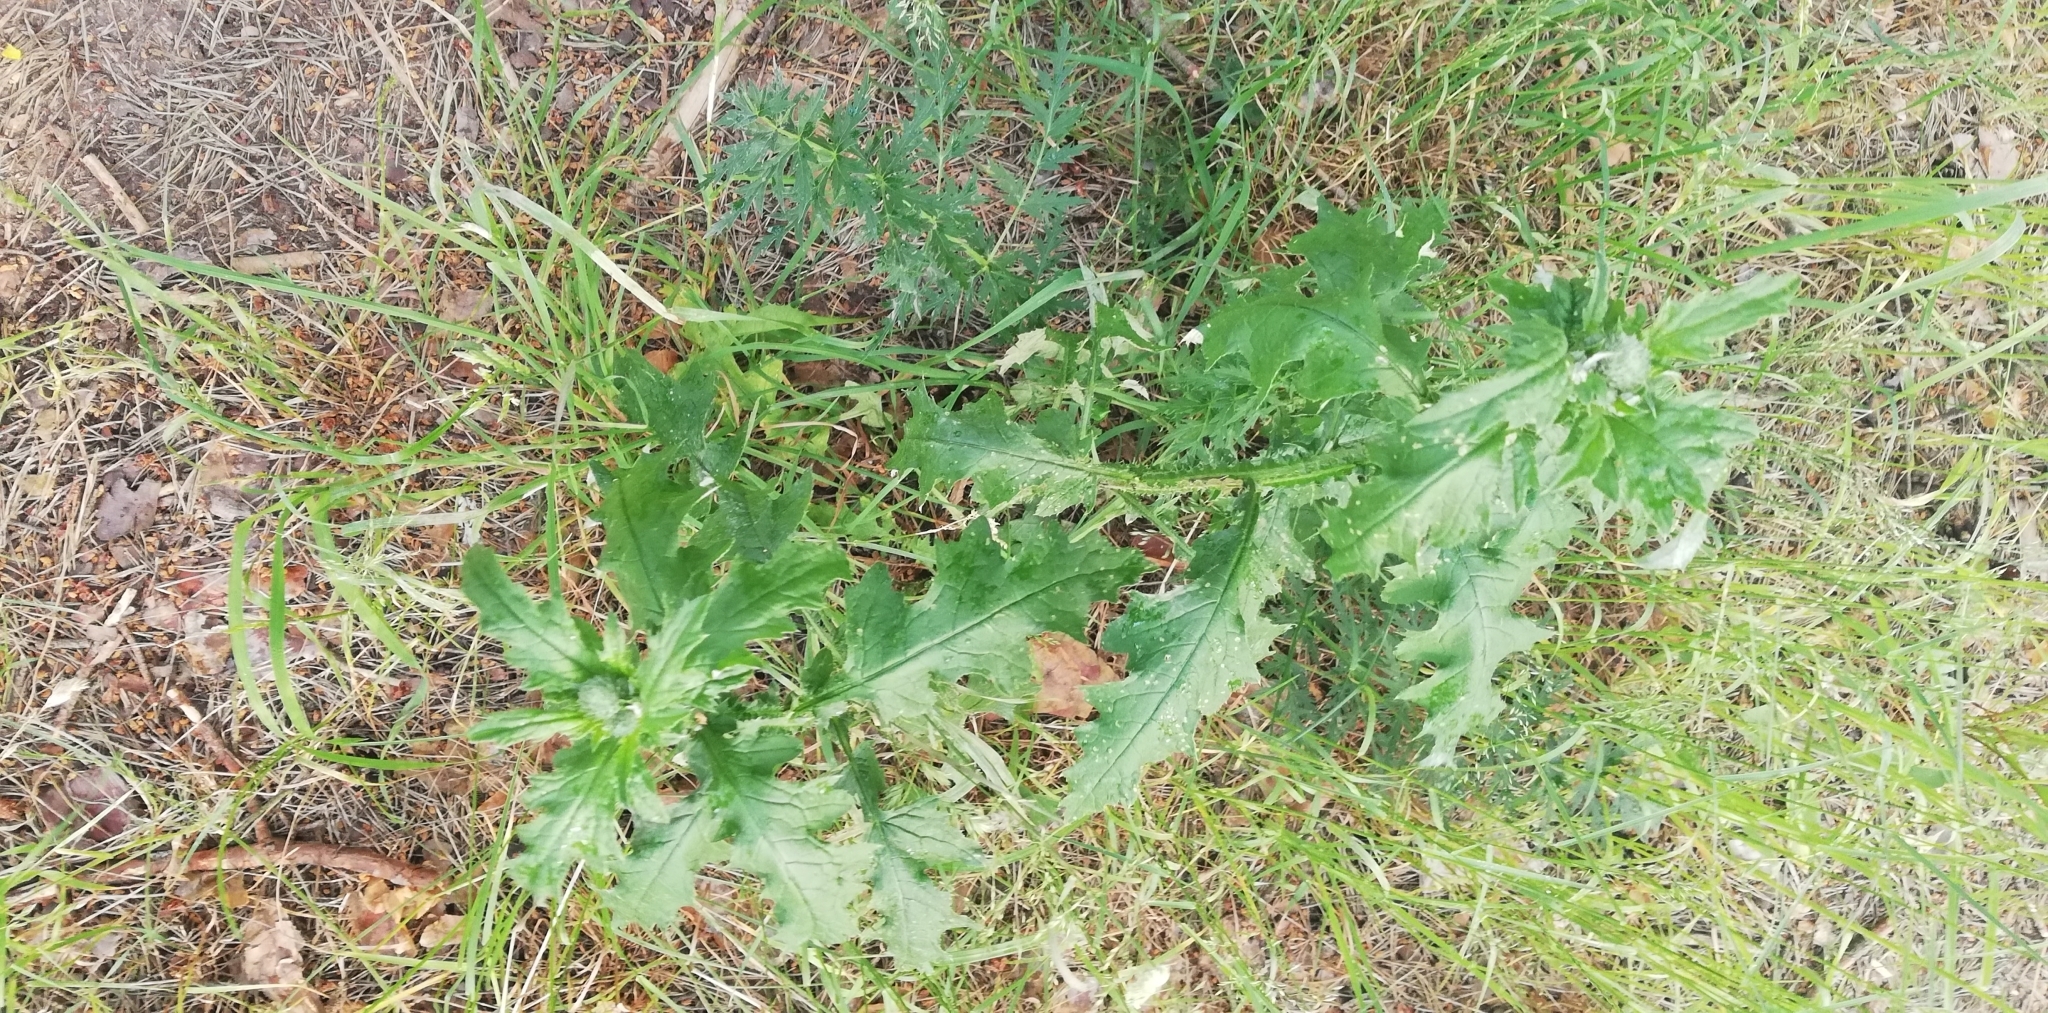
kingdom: Plantae
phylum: Tracheophyta
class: Magnoliopsida
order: Asterales
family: Asteraceae
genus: Carduus
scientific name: Carduus crispus
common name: Welted thistle
